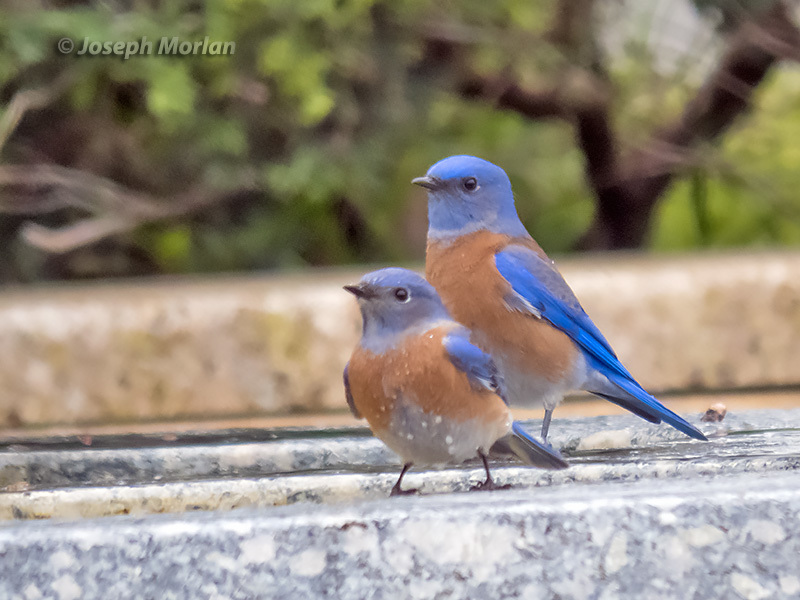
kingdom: Animalia
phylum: Chordata
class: Aves
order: Passeriformes
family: Turdidae
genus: Sialia
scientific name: Sialia mexicana
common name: Western bluebird
